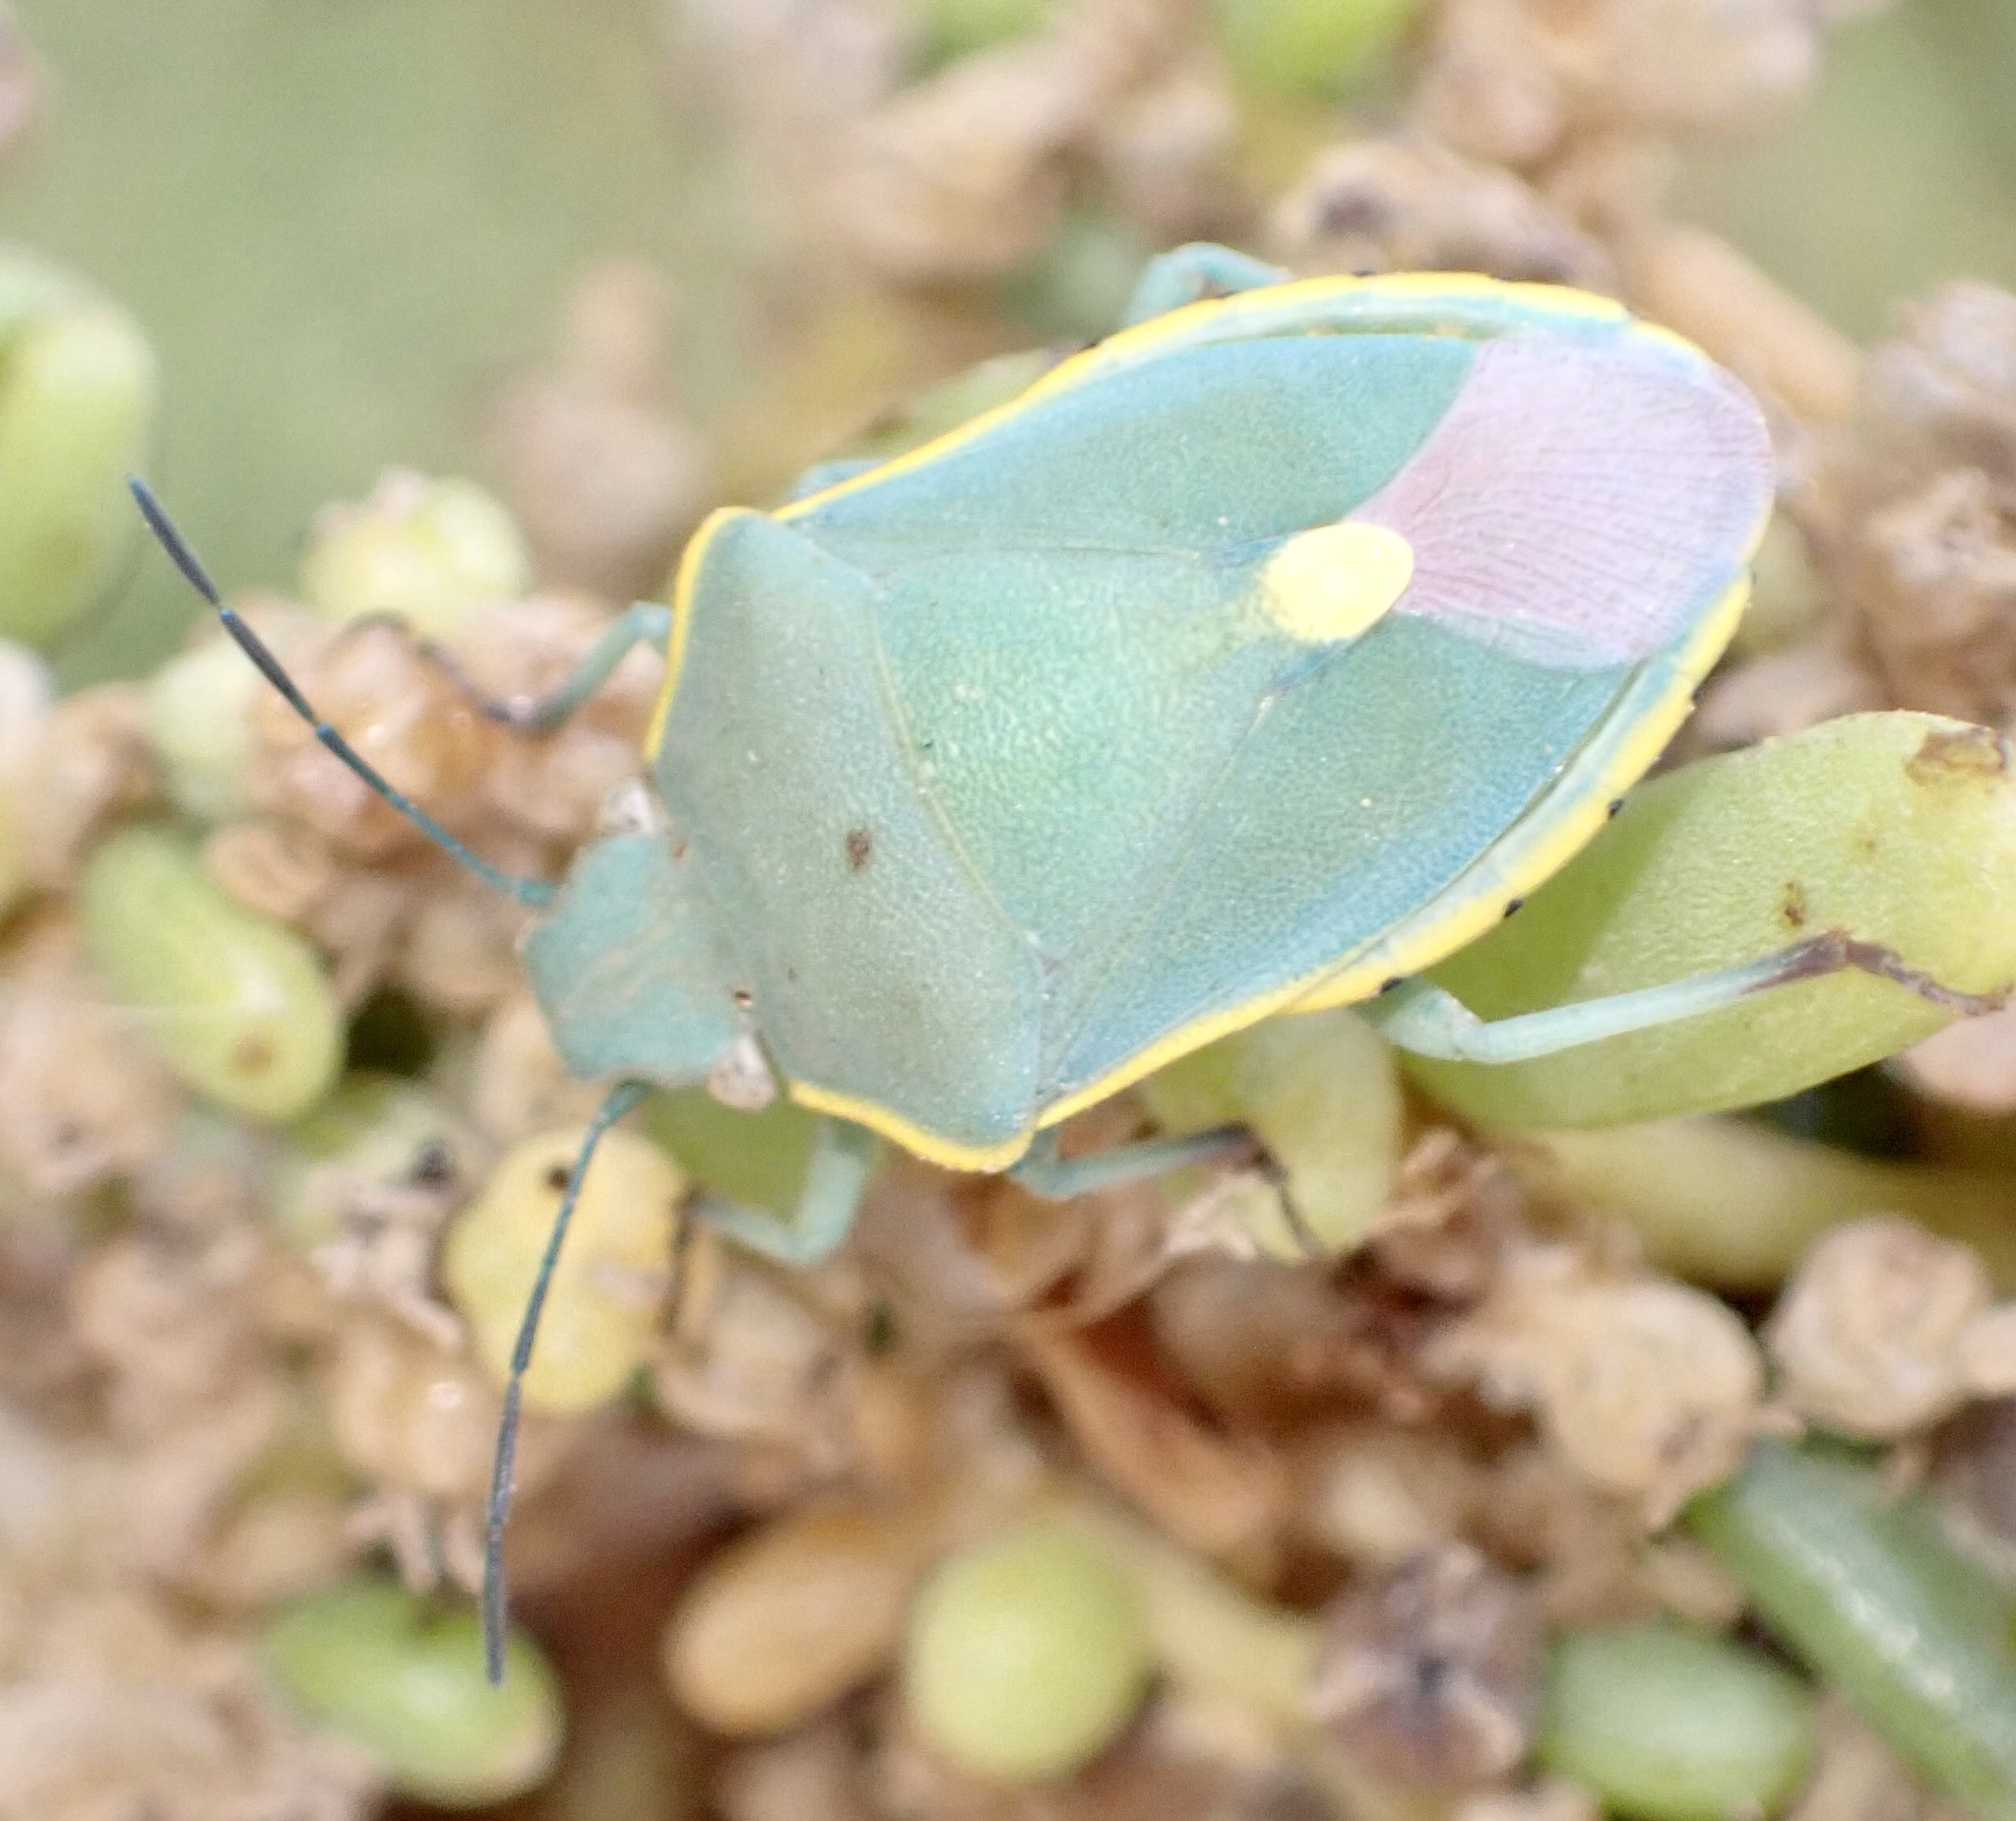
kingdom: Animalia
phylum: Arthropoda
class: Insecta
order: Hemiptera
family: Pentatomidae
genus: Brachynema
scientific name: Brachynema cinctum
